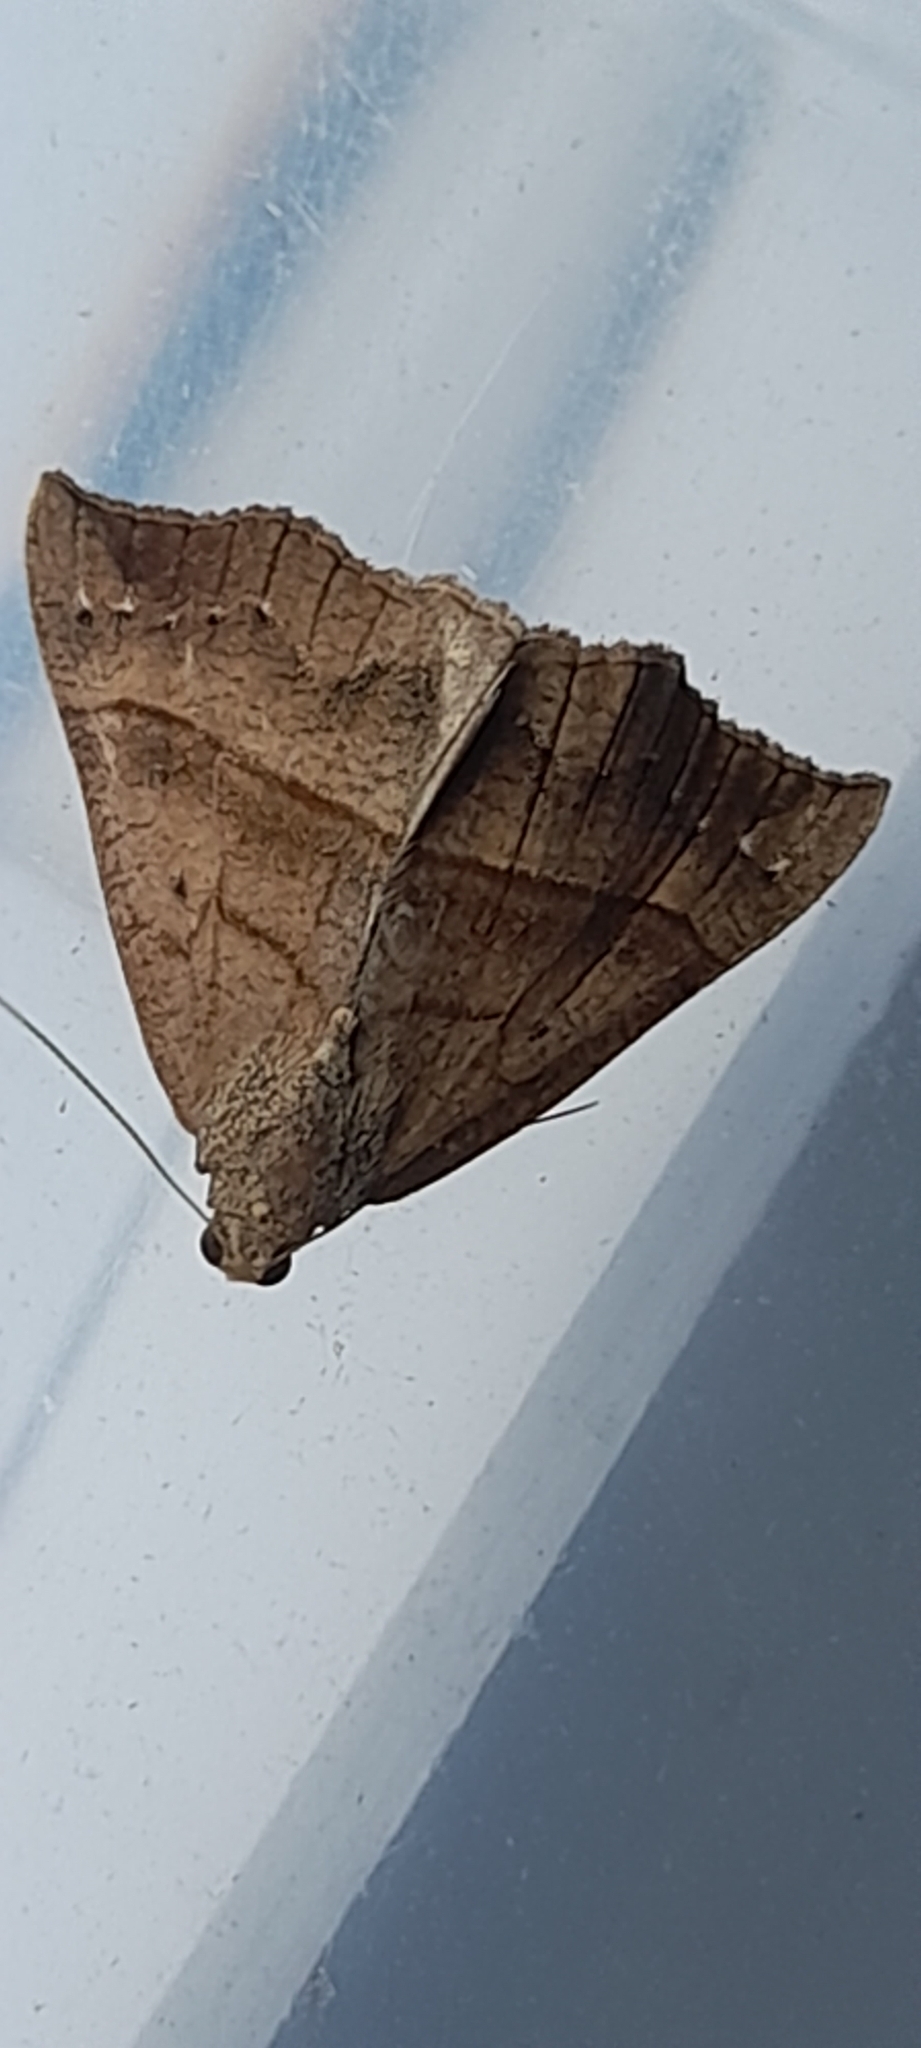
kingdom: Animalia
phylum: Arthropoda
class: Insecta
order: Lepidoptera
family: Erebidae
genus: Hypena
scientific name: Hypena proboscidalis
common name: Snout
